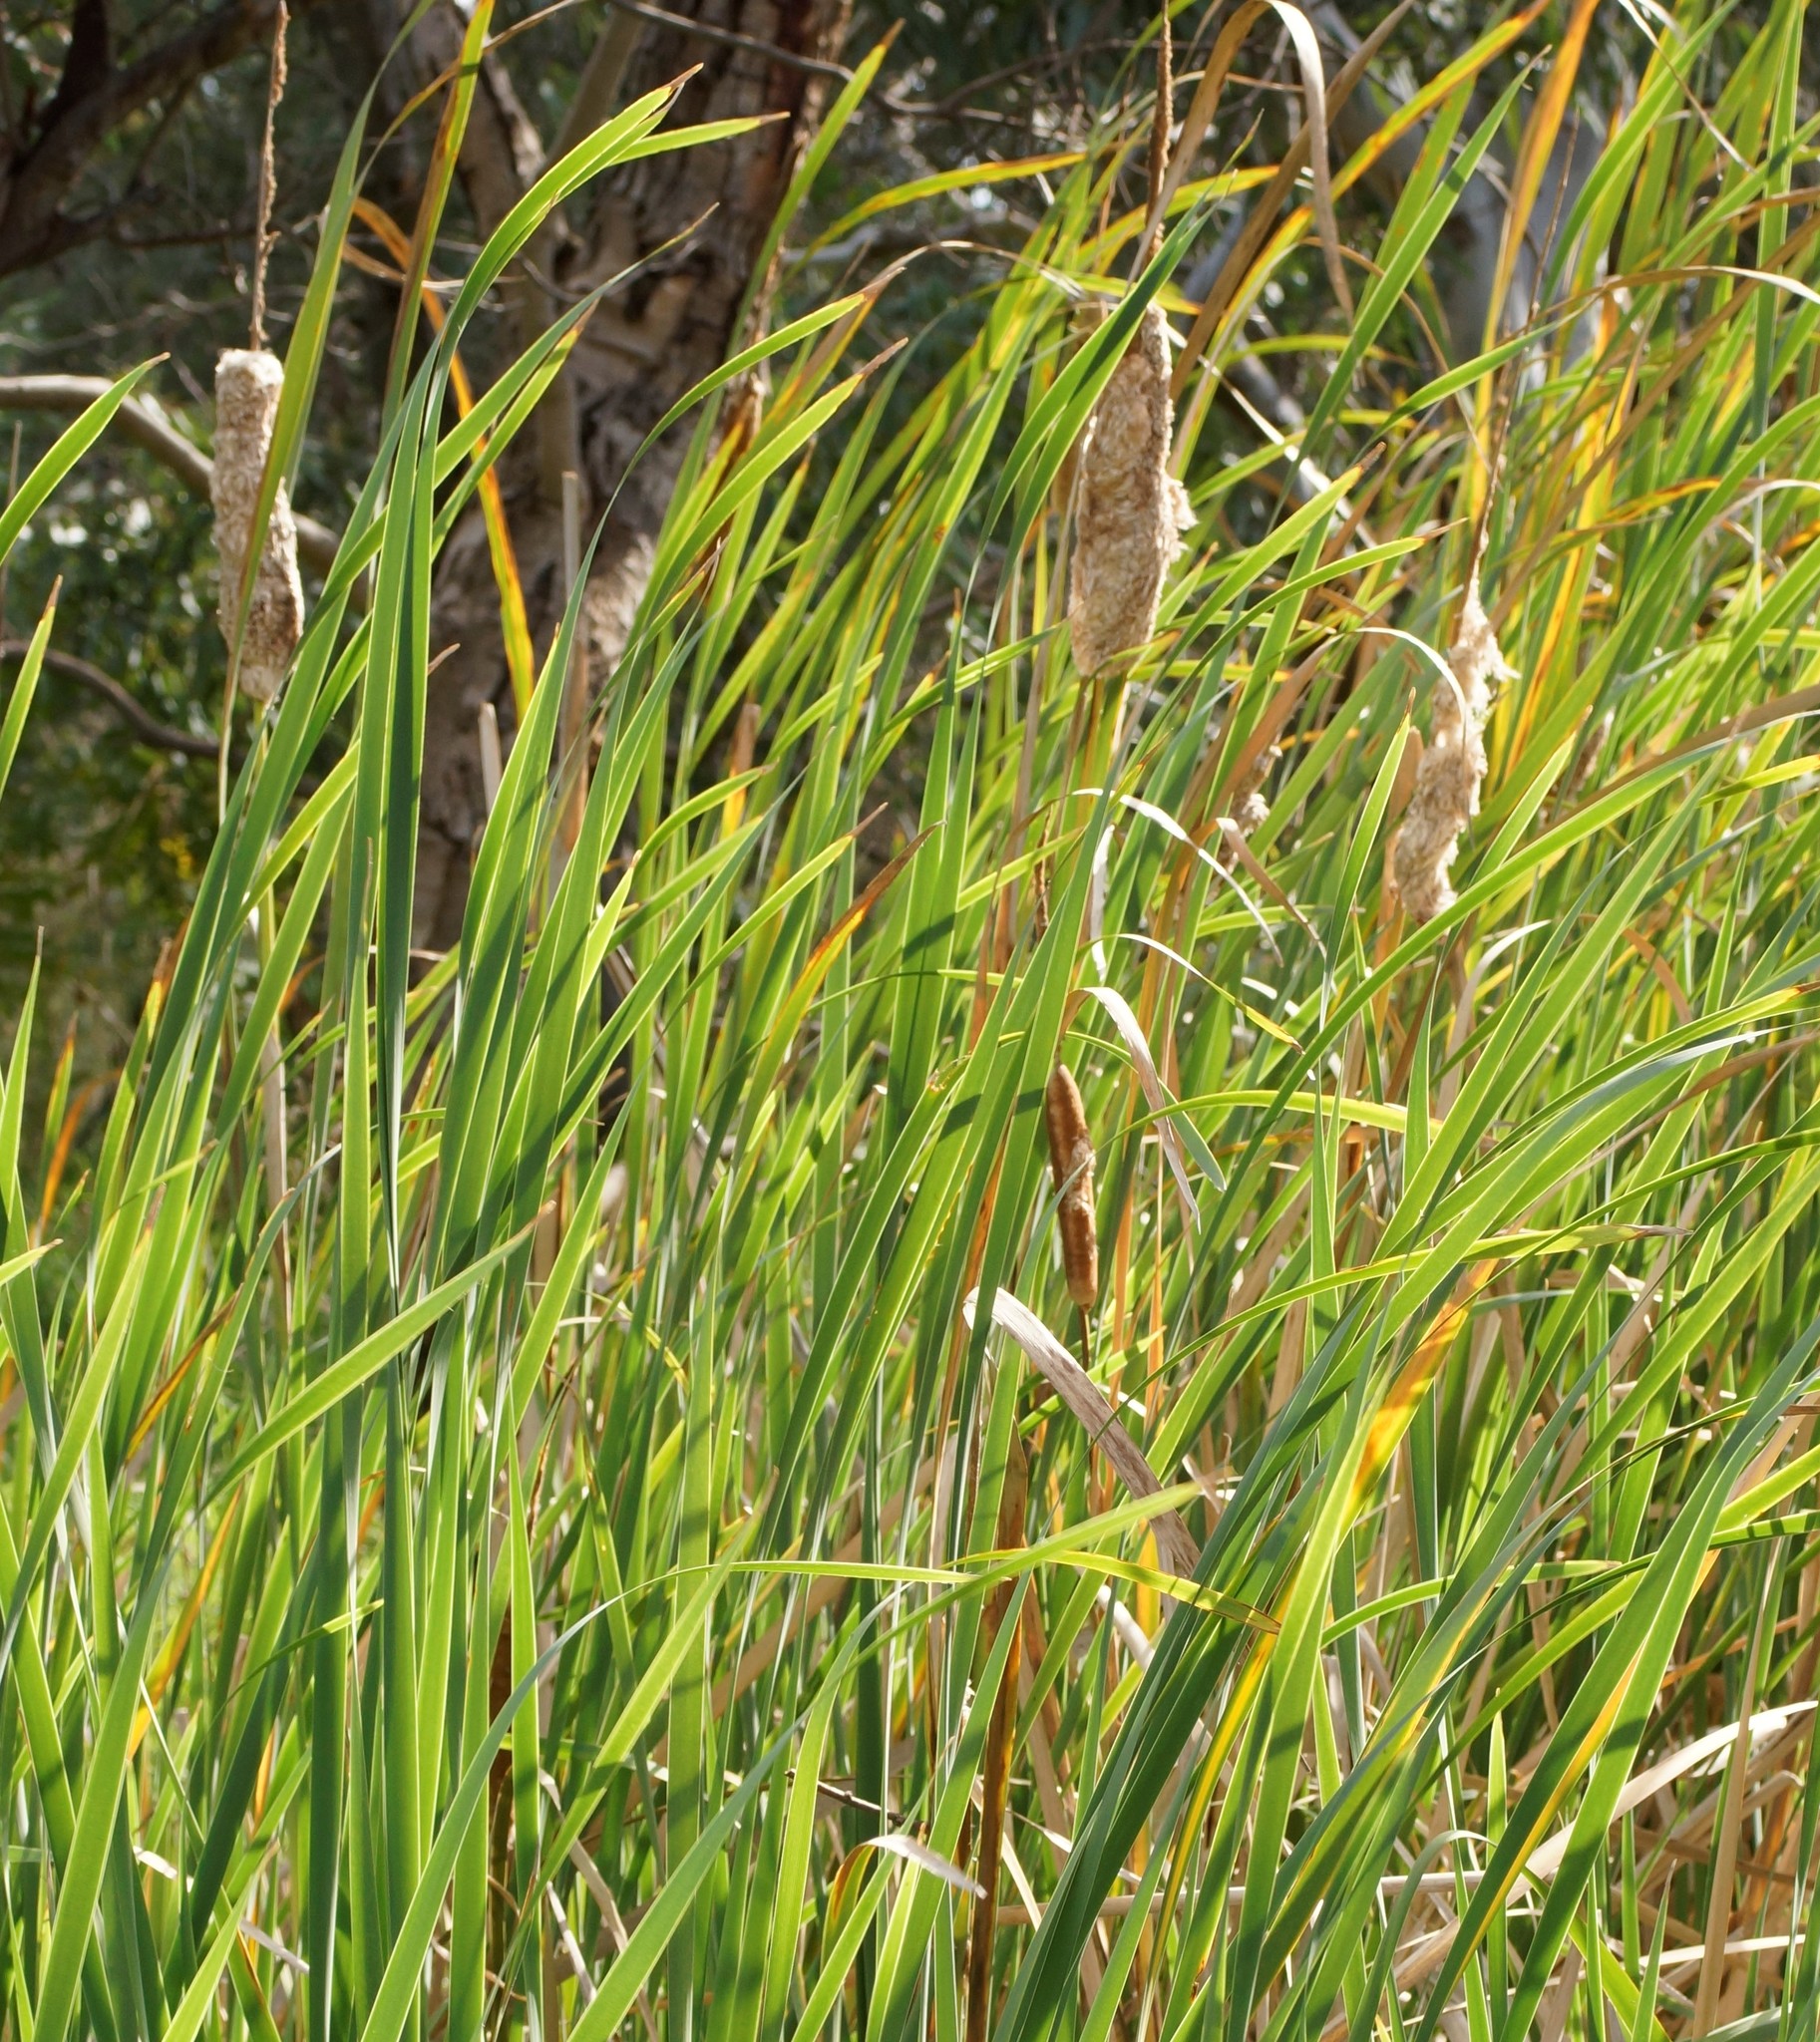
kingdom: Plantae
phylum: Tracheophyta
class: Liliopsida
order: Poales
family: Typhaceae
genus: Typha
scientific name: Typha orientalis
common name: Bullrush
